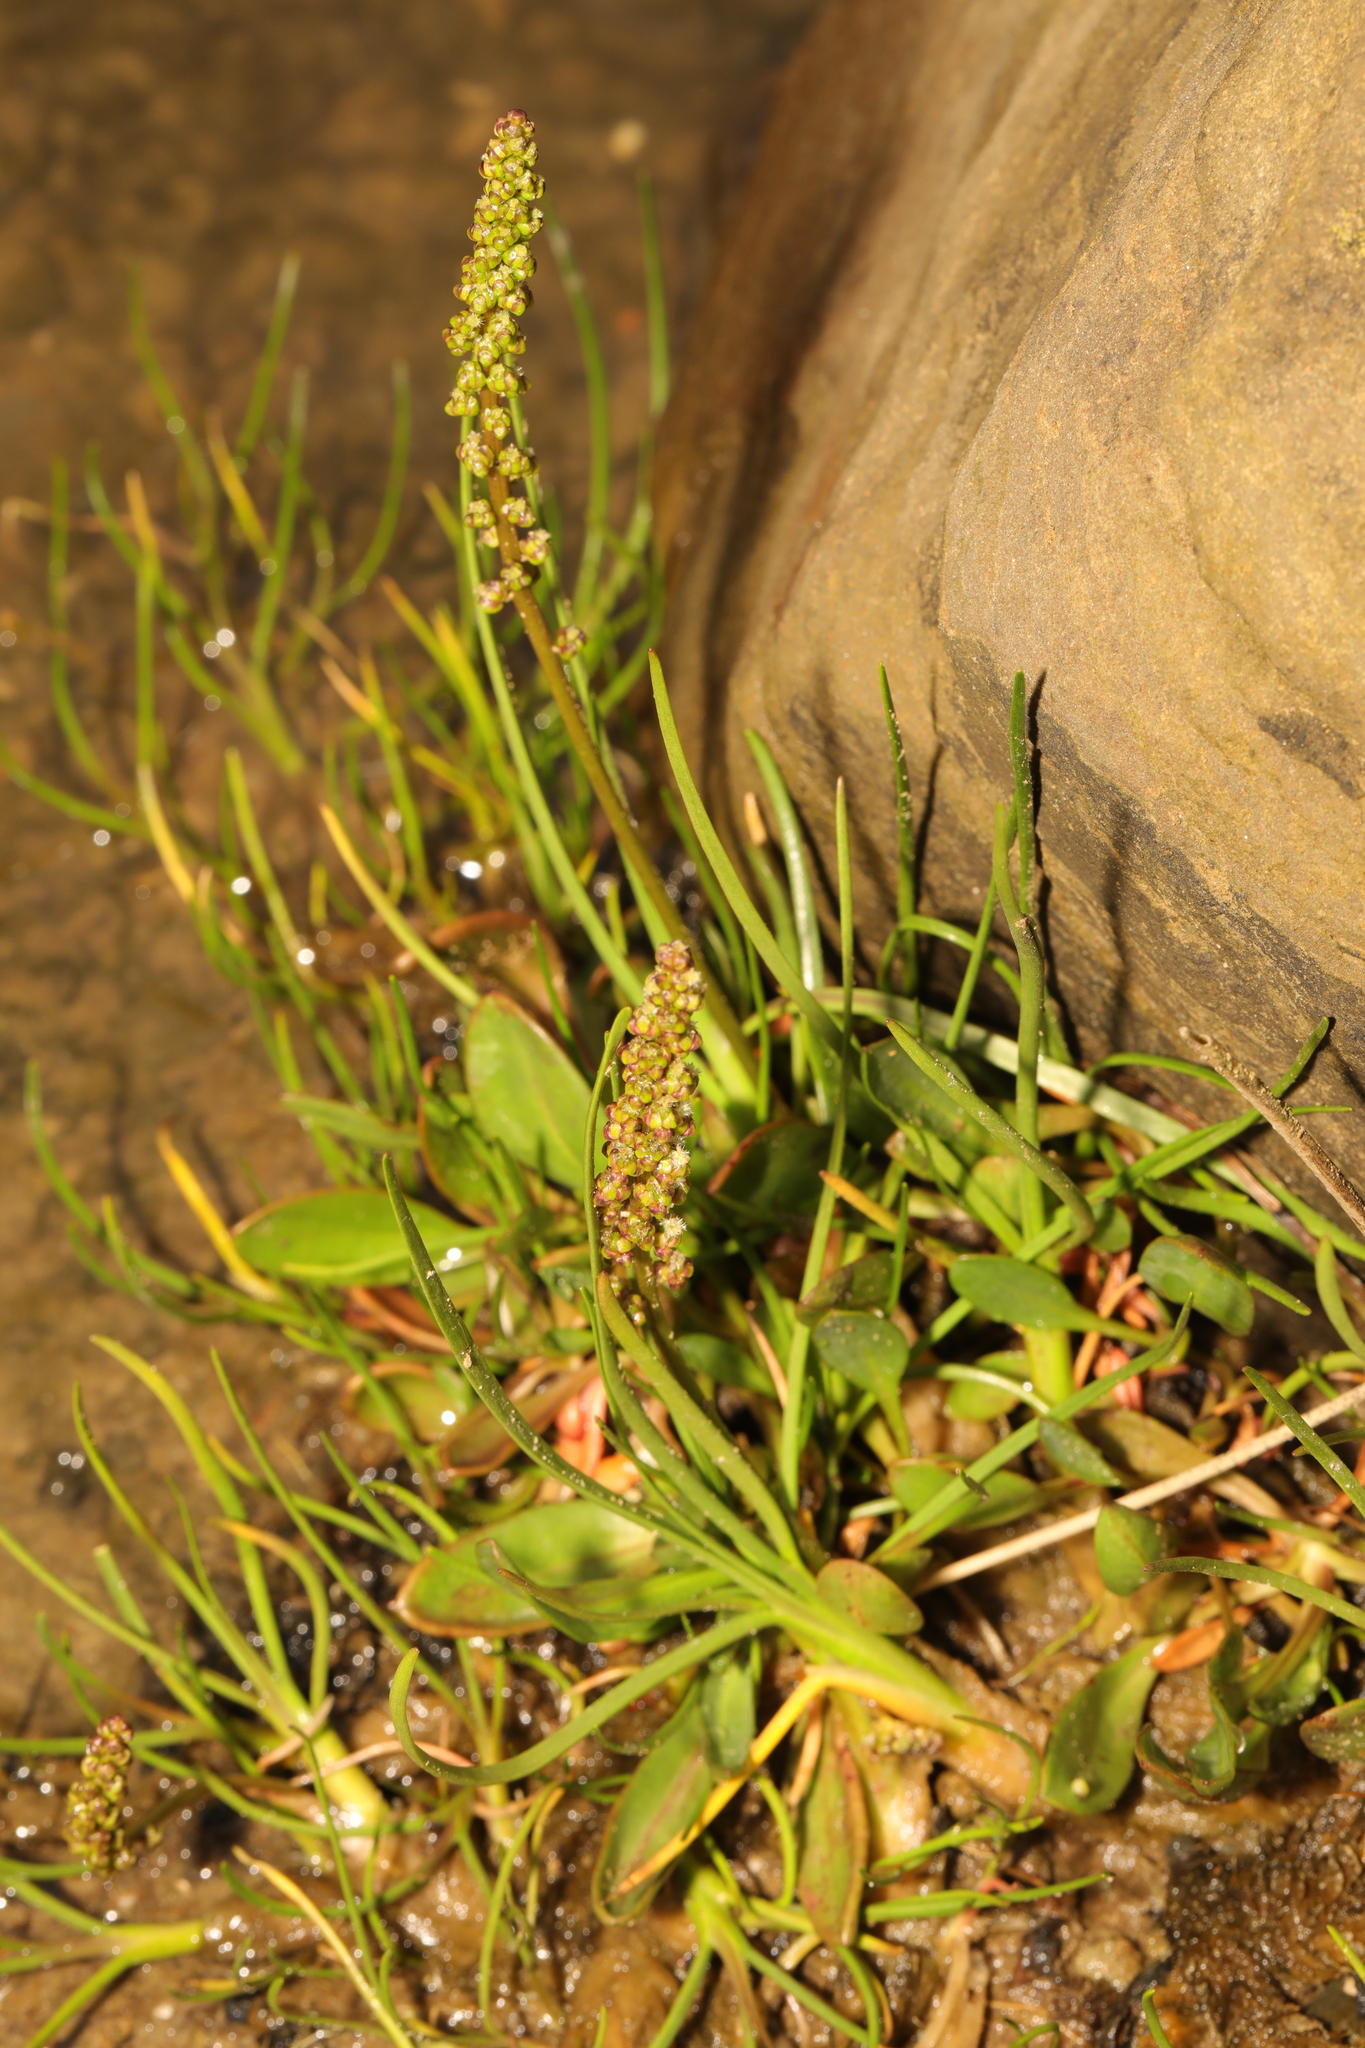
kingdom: Plantae
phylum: Tracheophyta
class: Liliopsida
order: Alismatales
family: Juncaginaceae
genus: Triglochin
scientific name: Triglochin maritima
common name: Sea arrowgrass
